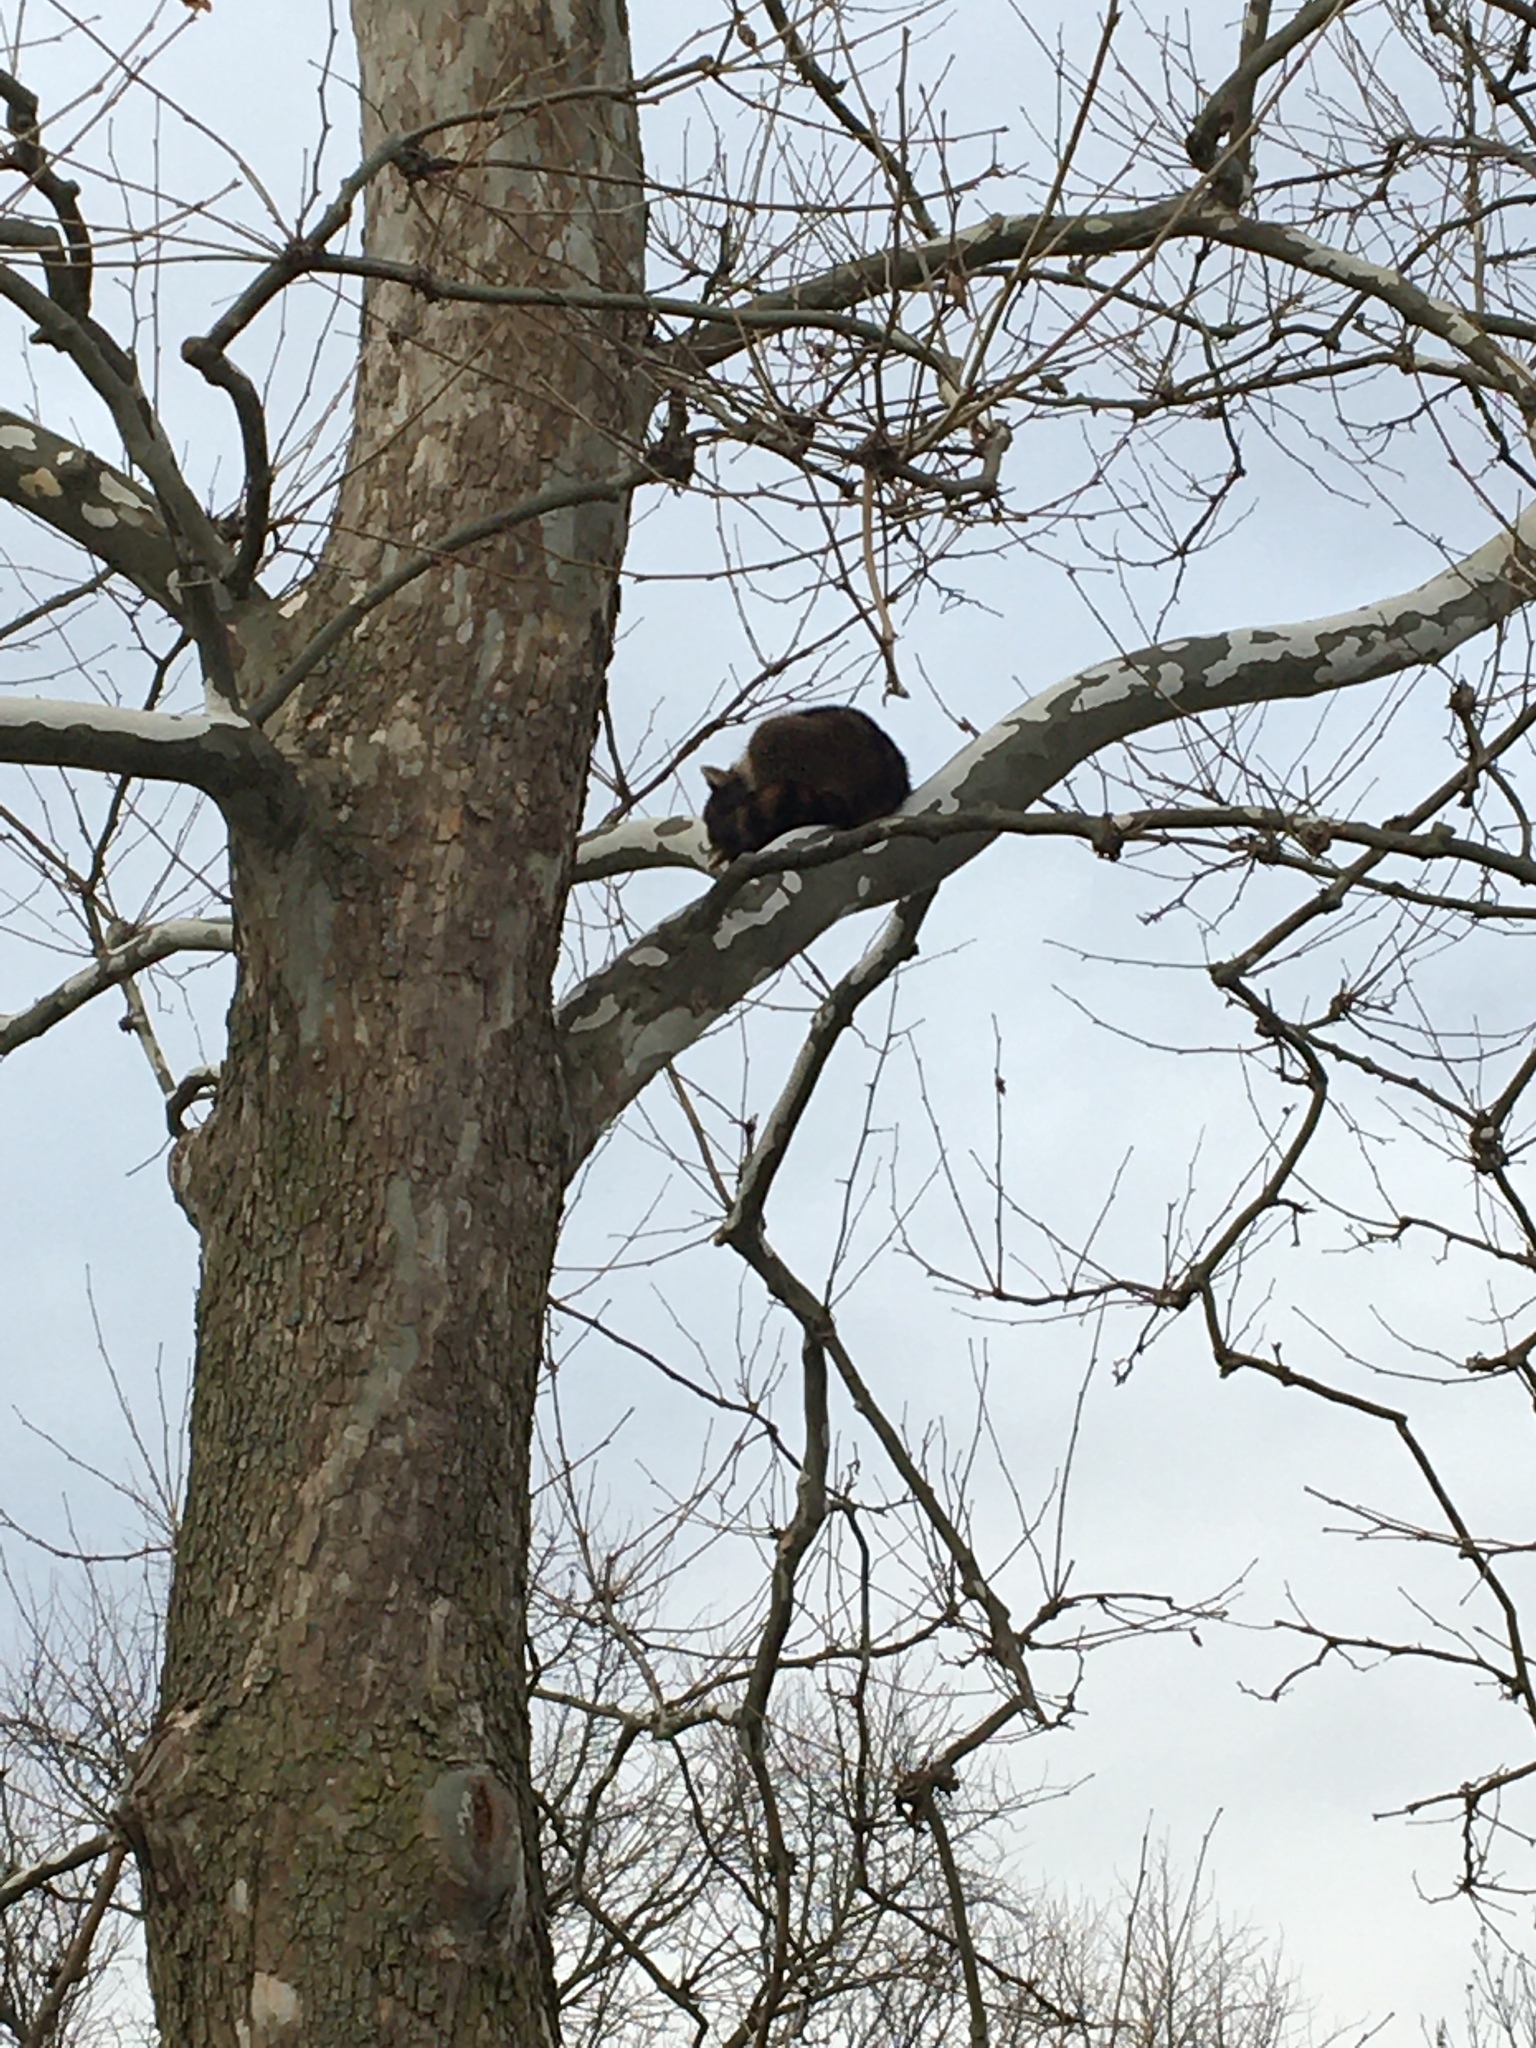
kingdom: Animalia
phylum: Chordata
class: Mammalia
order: Carnivora
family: Procyonidae
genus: Procyon
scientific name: Procyon lotor
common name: Raccoon
